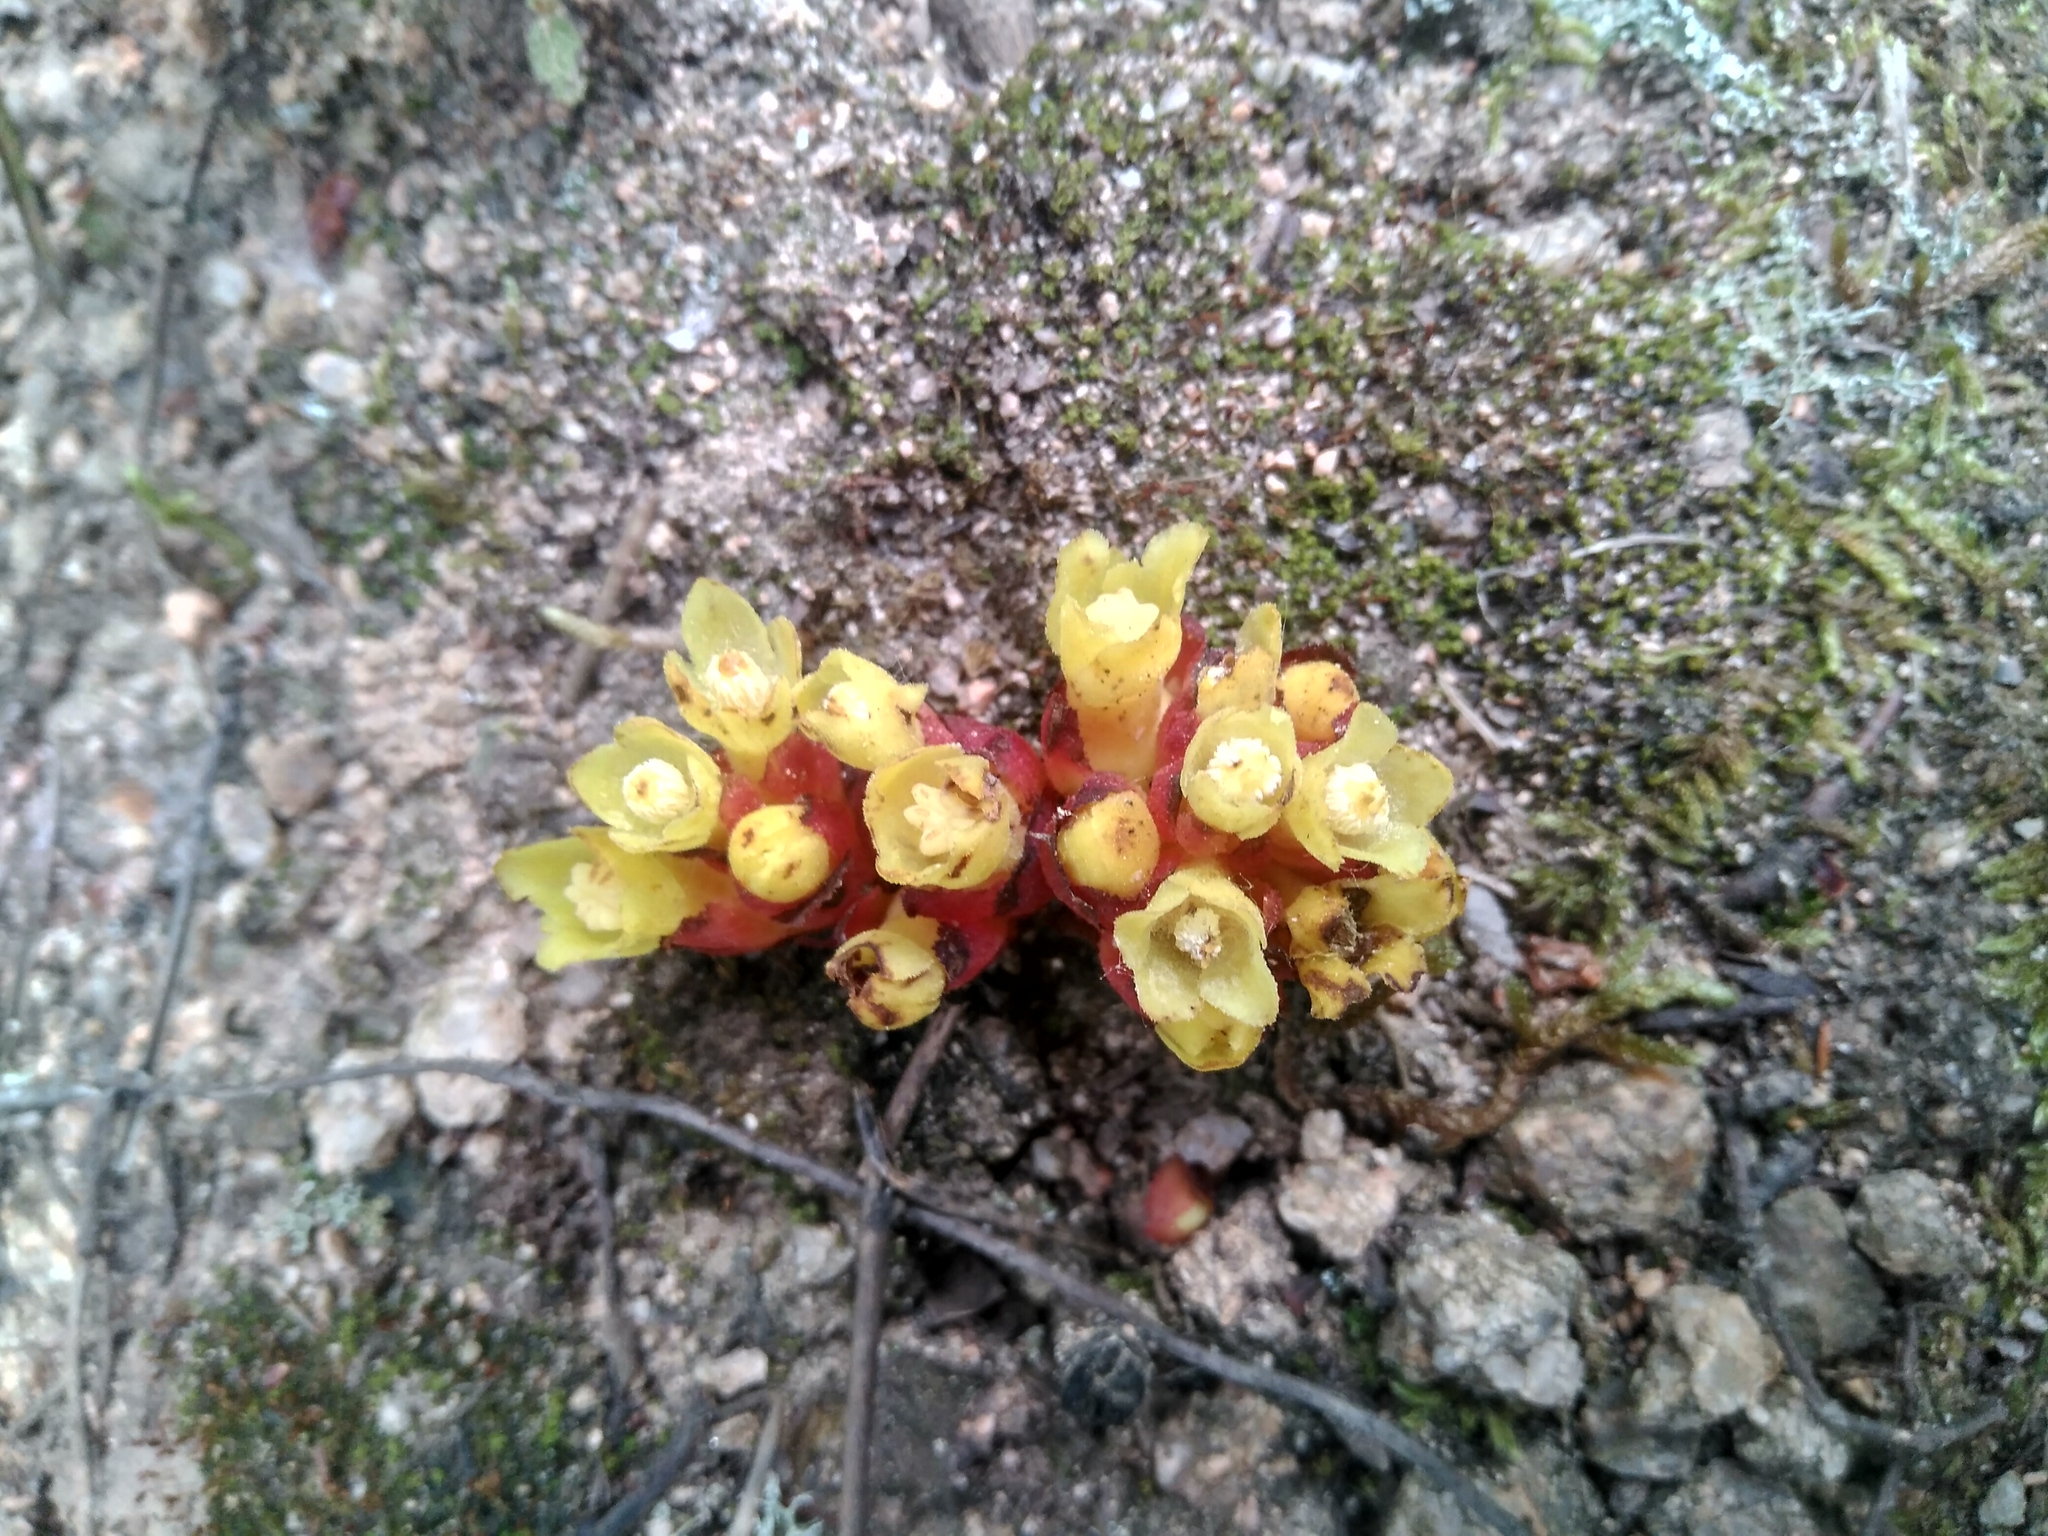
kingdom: Plantae
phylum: Tracheophyta
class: Magnoliopsida
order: Malvales
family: Cytinaceae
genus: Cytinus
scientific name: Cytinus hypocistis
